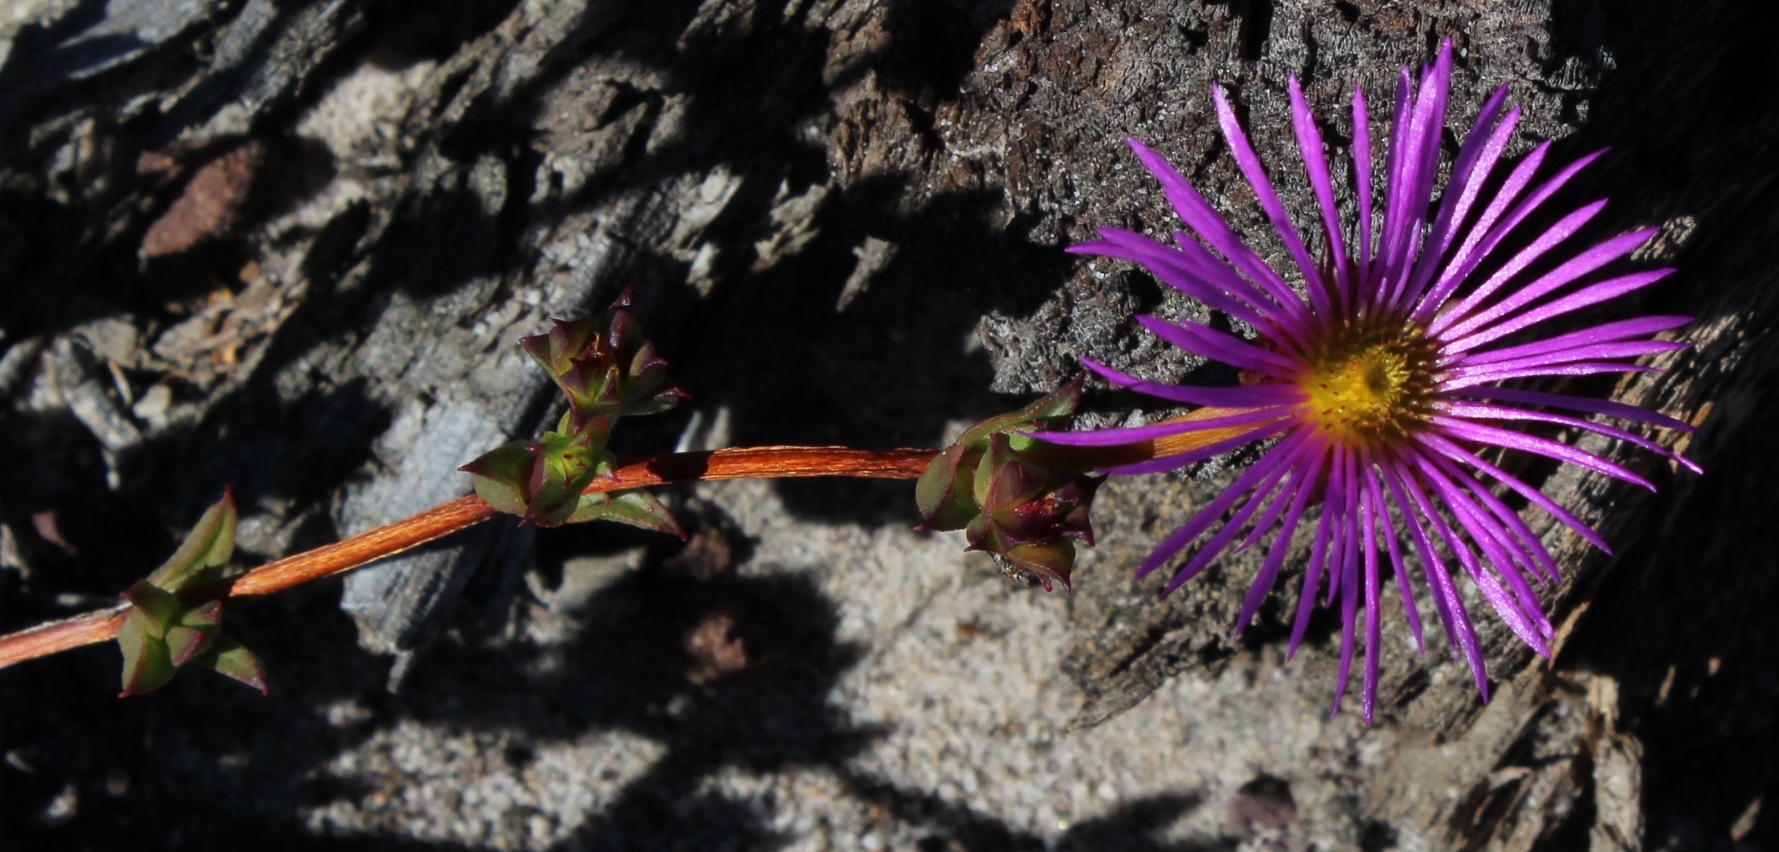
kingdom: Plantae
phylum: Tracheophyta
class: Magnoliopsida
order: Caryophyllales
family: Aizoaceae
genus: Erepsia
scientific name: Erepsia anceps
